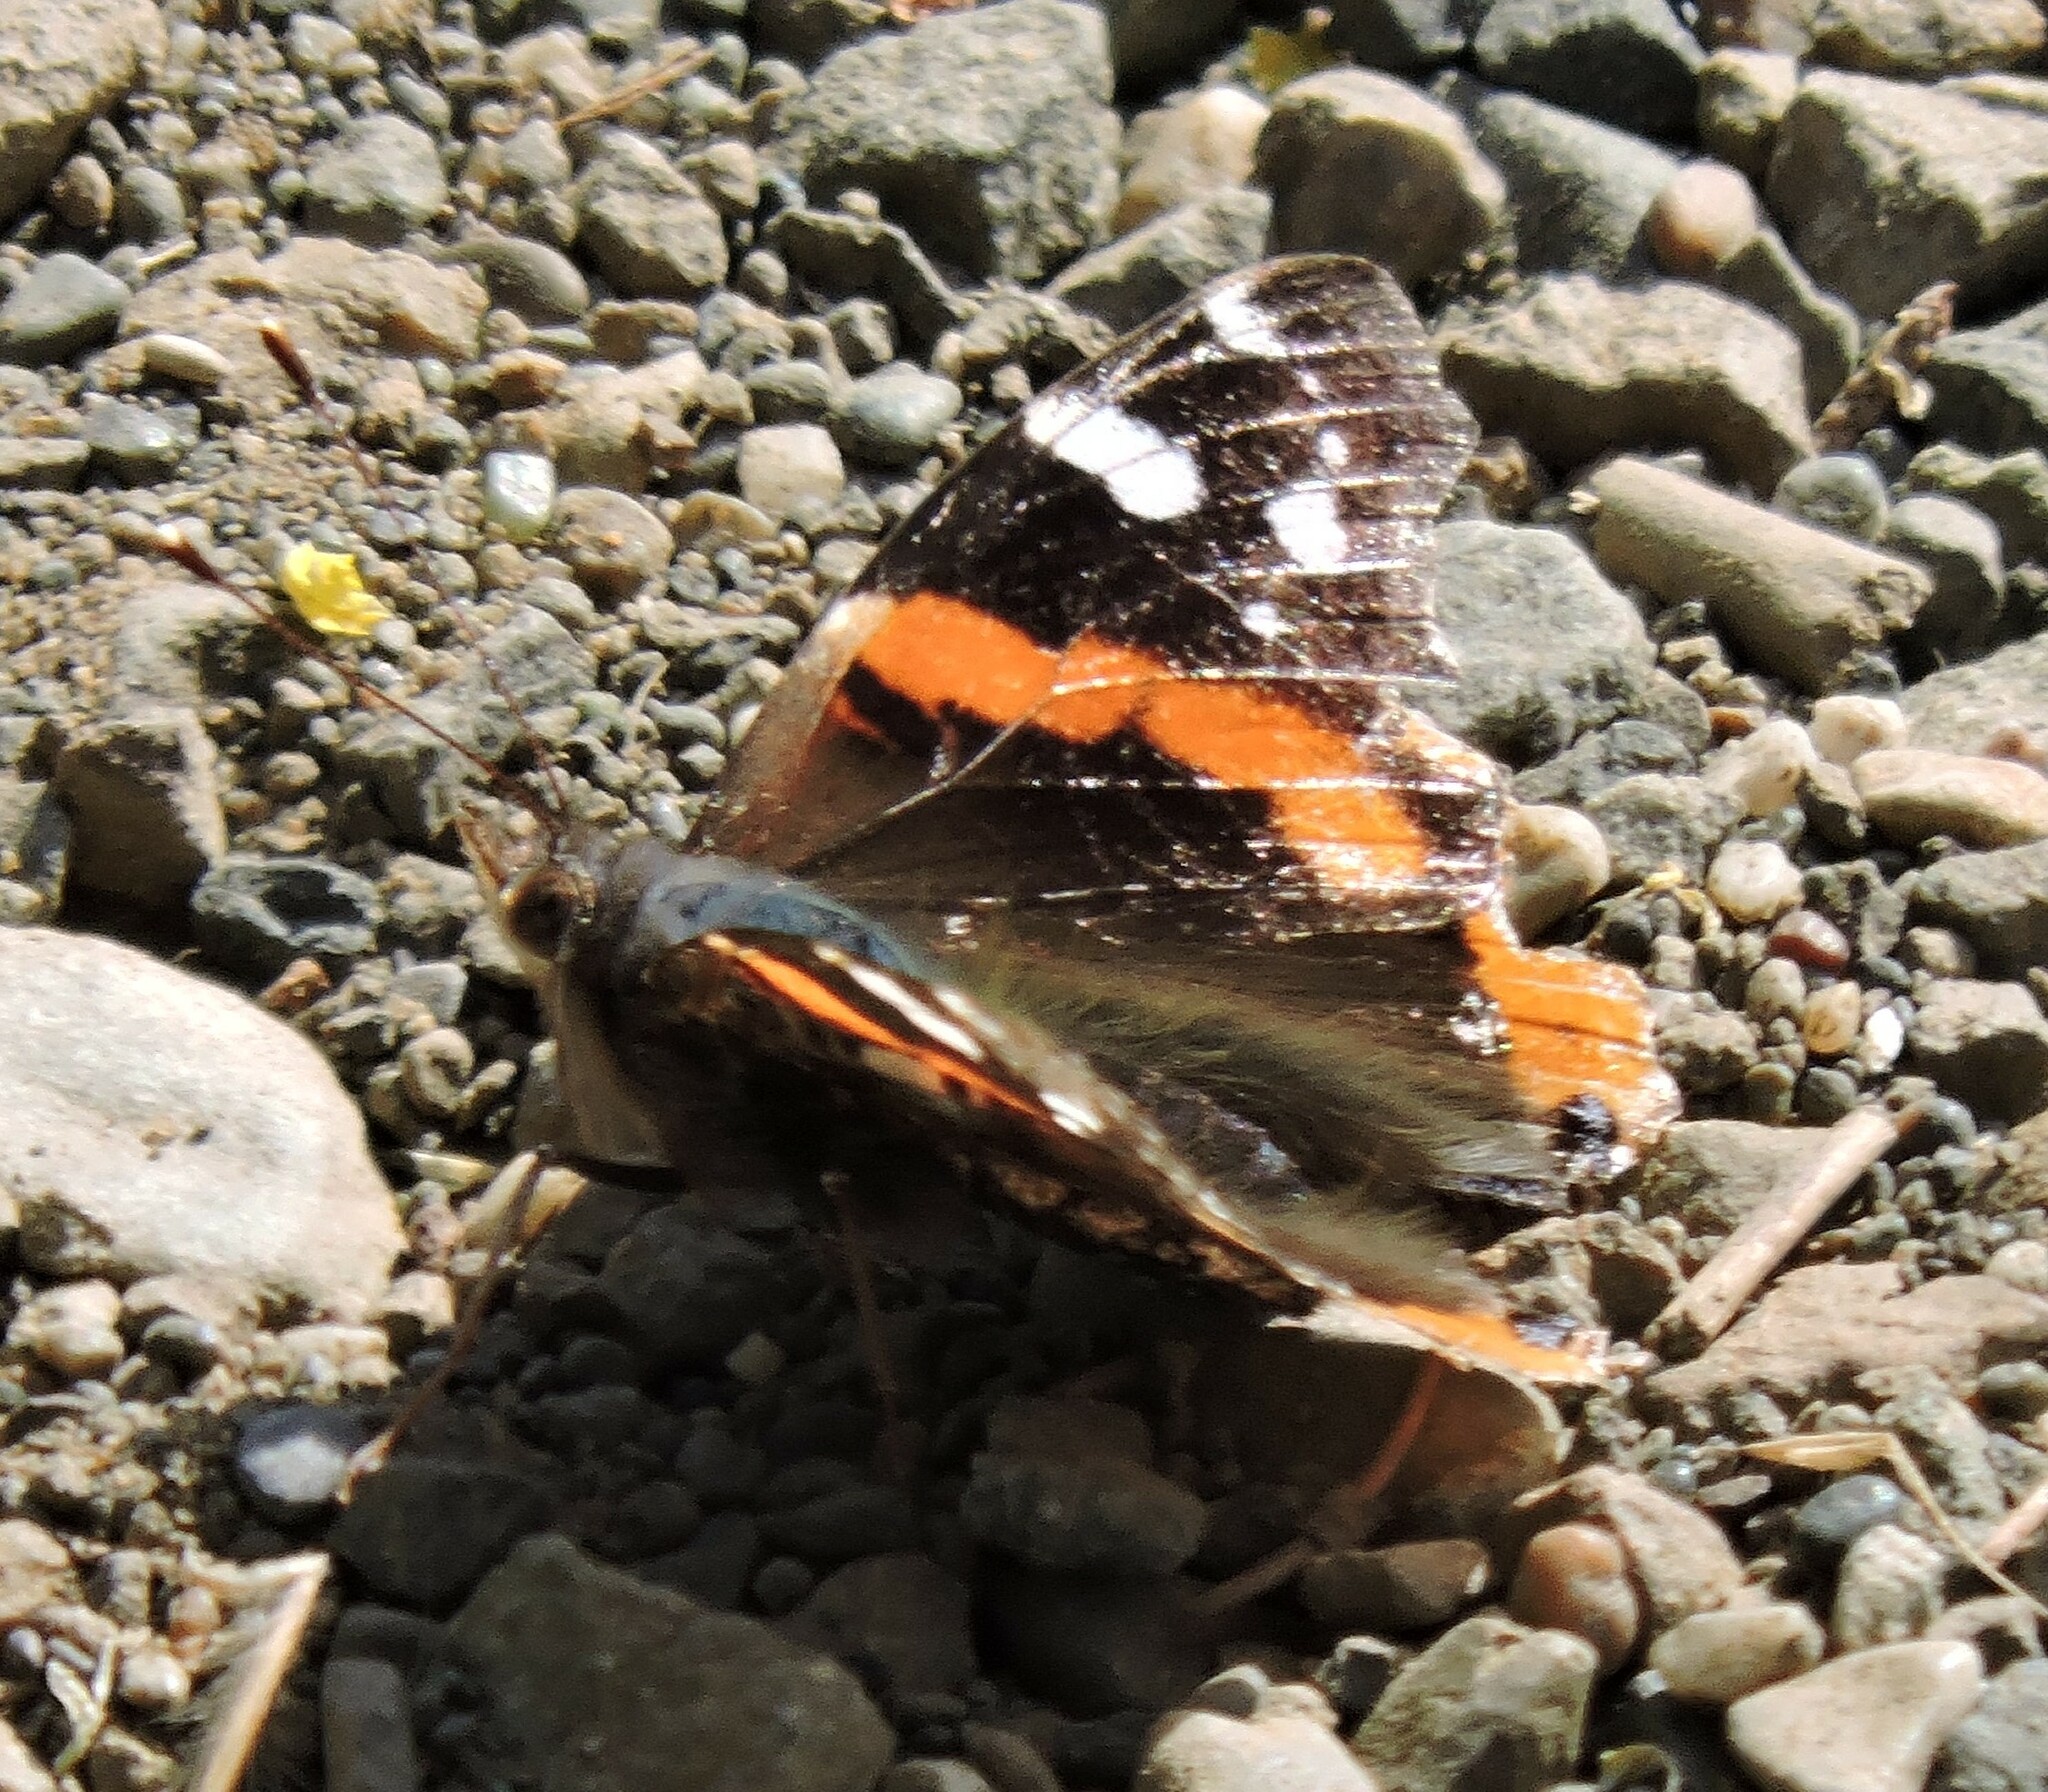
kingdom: Animalia
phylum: Arthropoda
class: Insecta
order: Lepidoptera
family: Nymphalidae
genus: Vanessa
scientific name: Vanessa atalanta
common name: Red admiral
